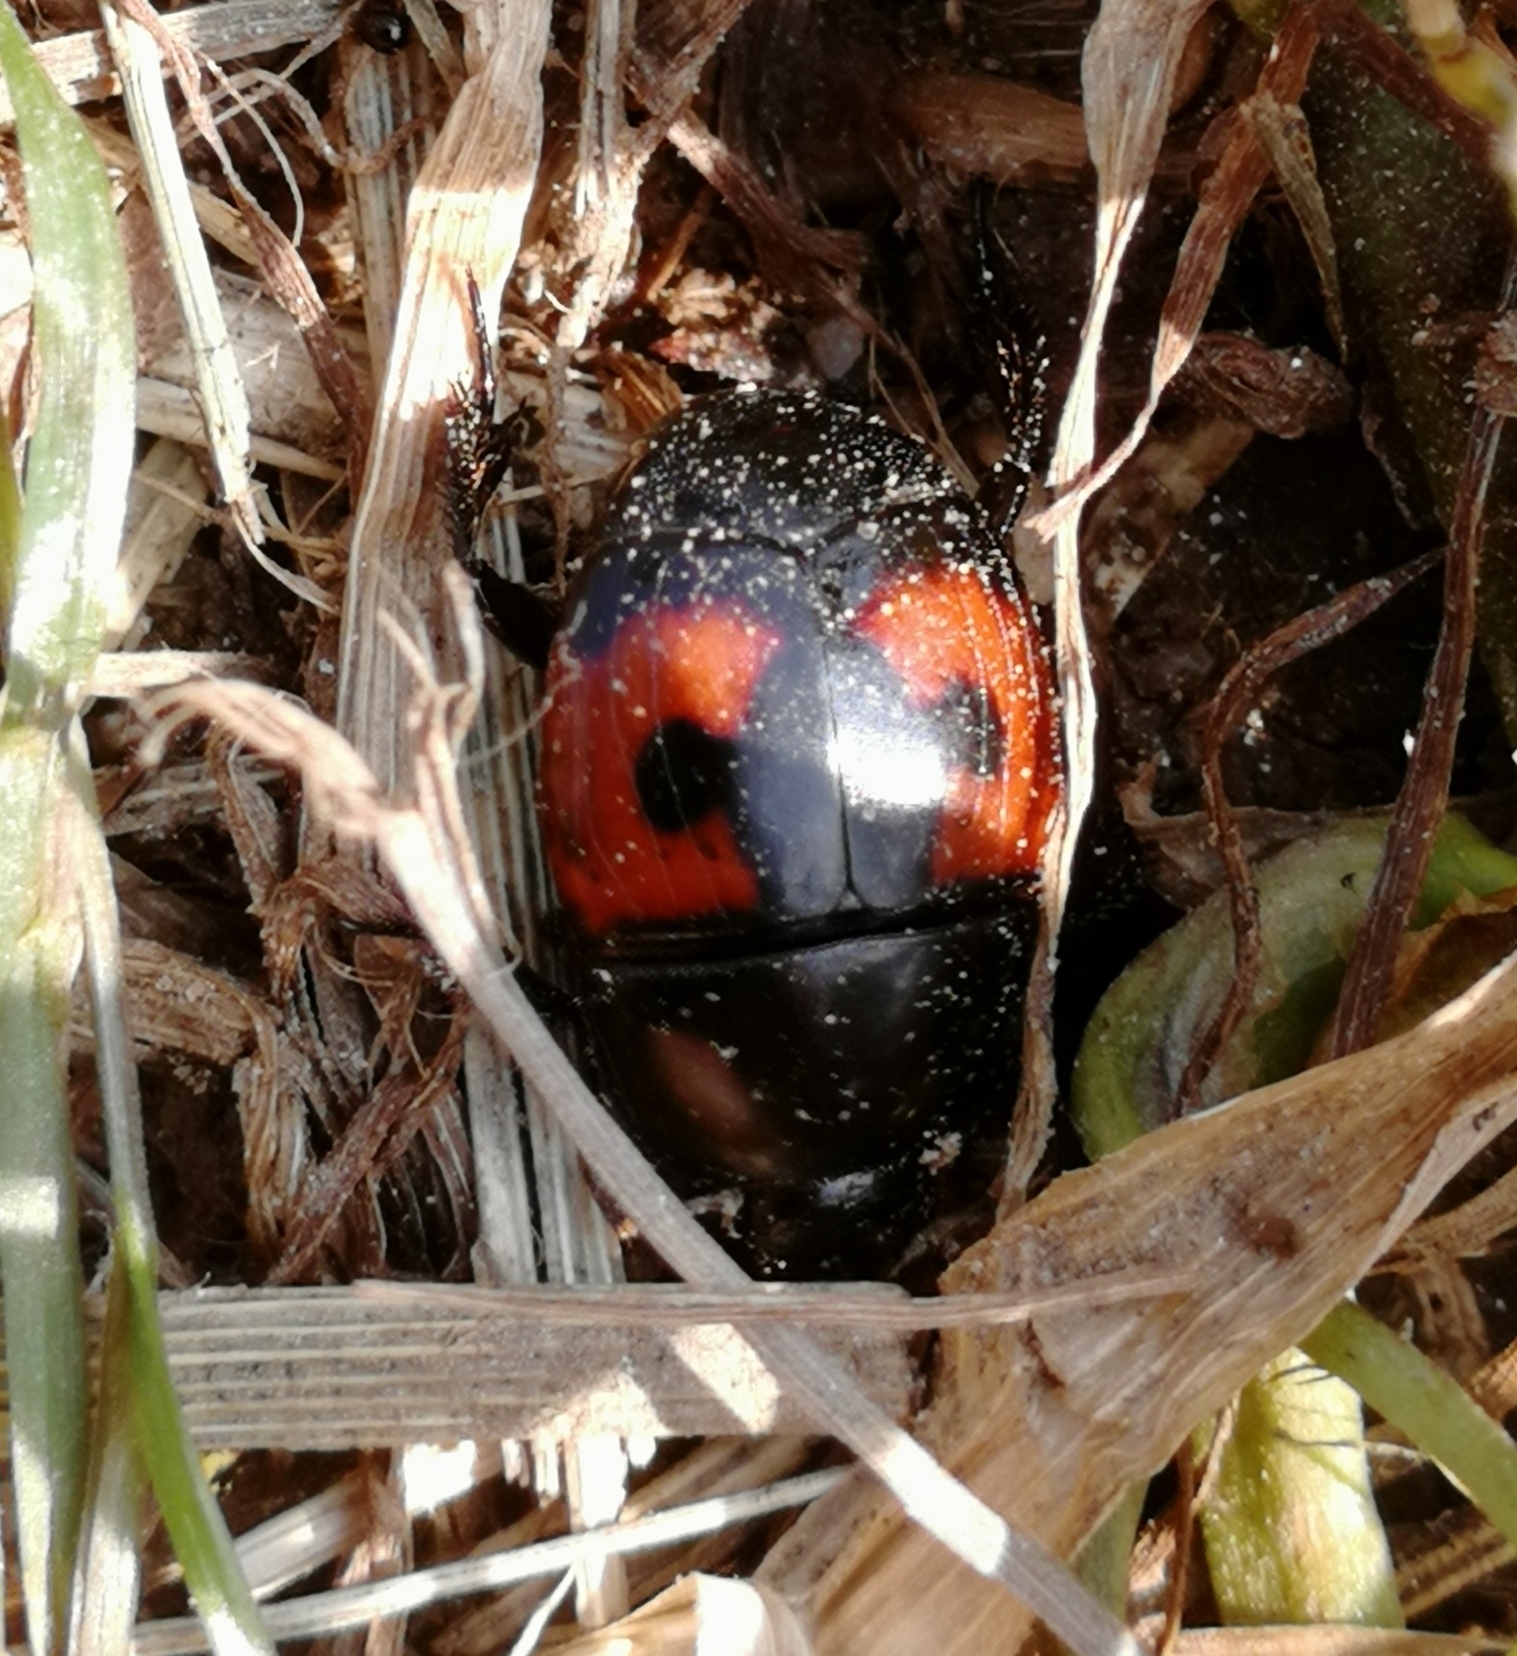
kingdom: Animalia
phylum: Arthropoda
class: Insecta
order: Coleoptera
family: Histeridae
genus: Hister
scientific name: Hister quadrimaculatus
